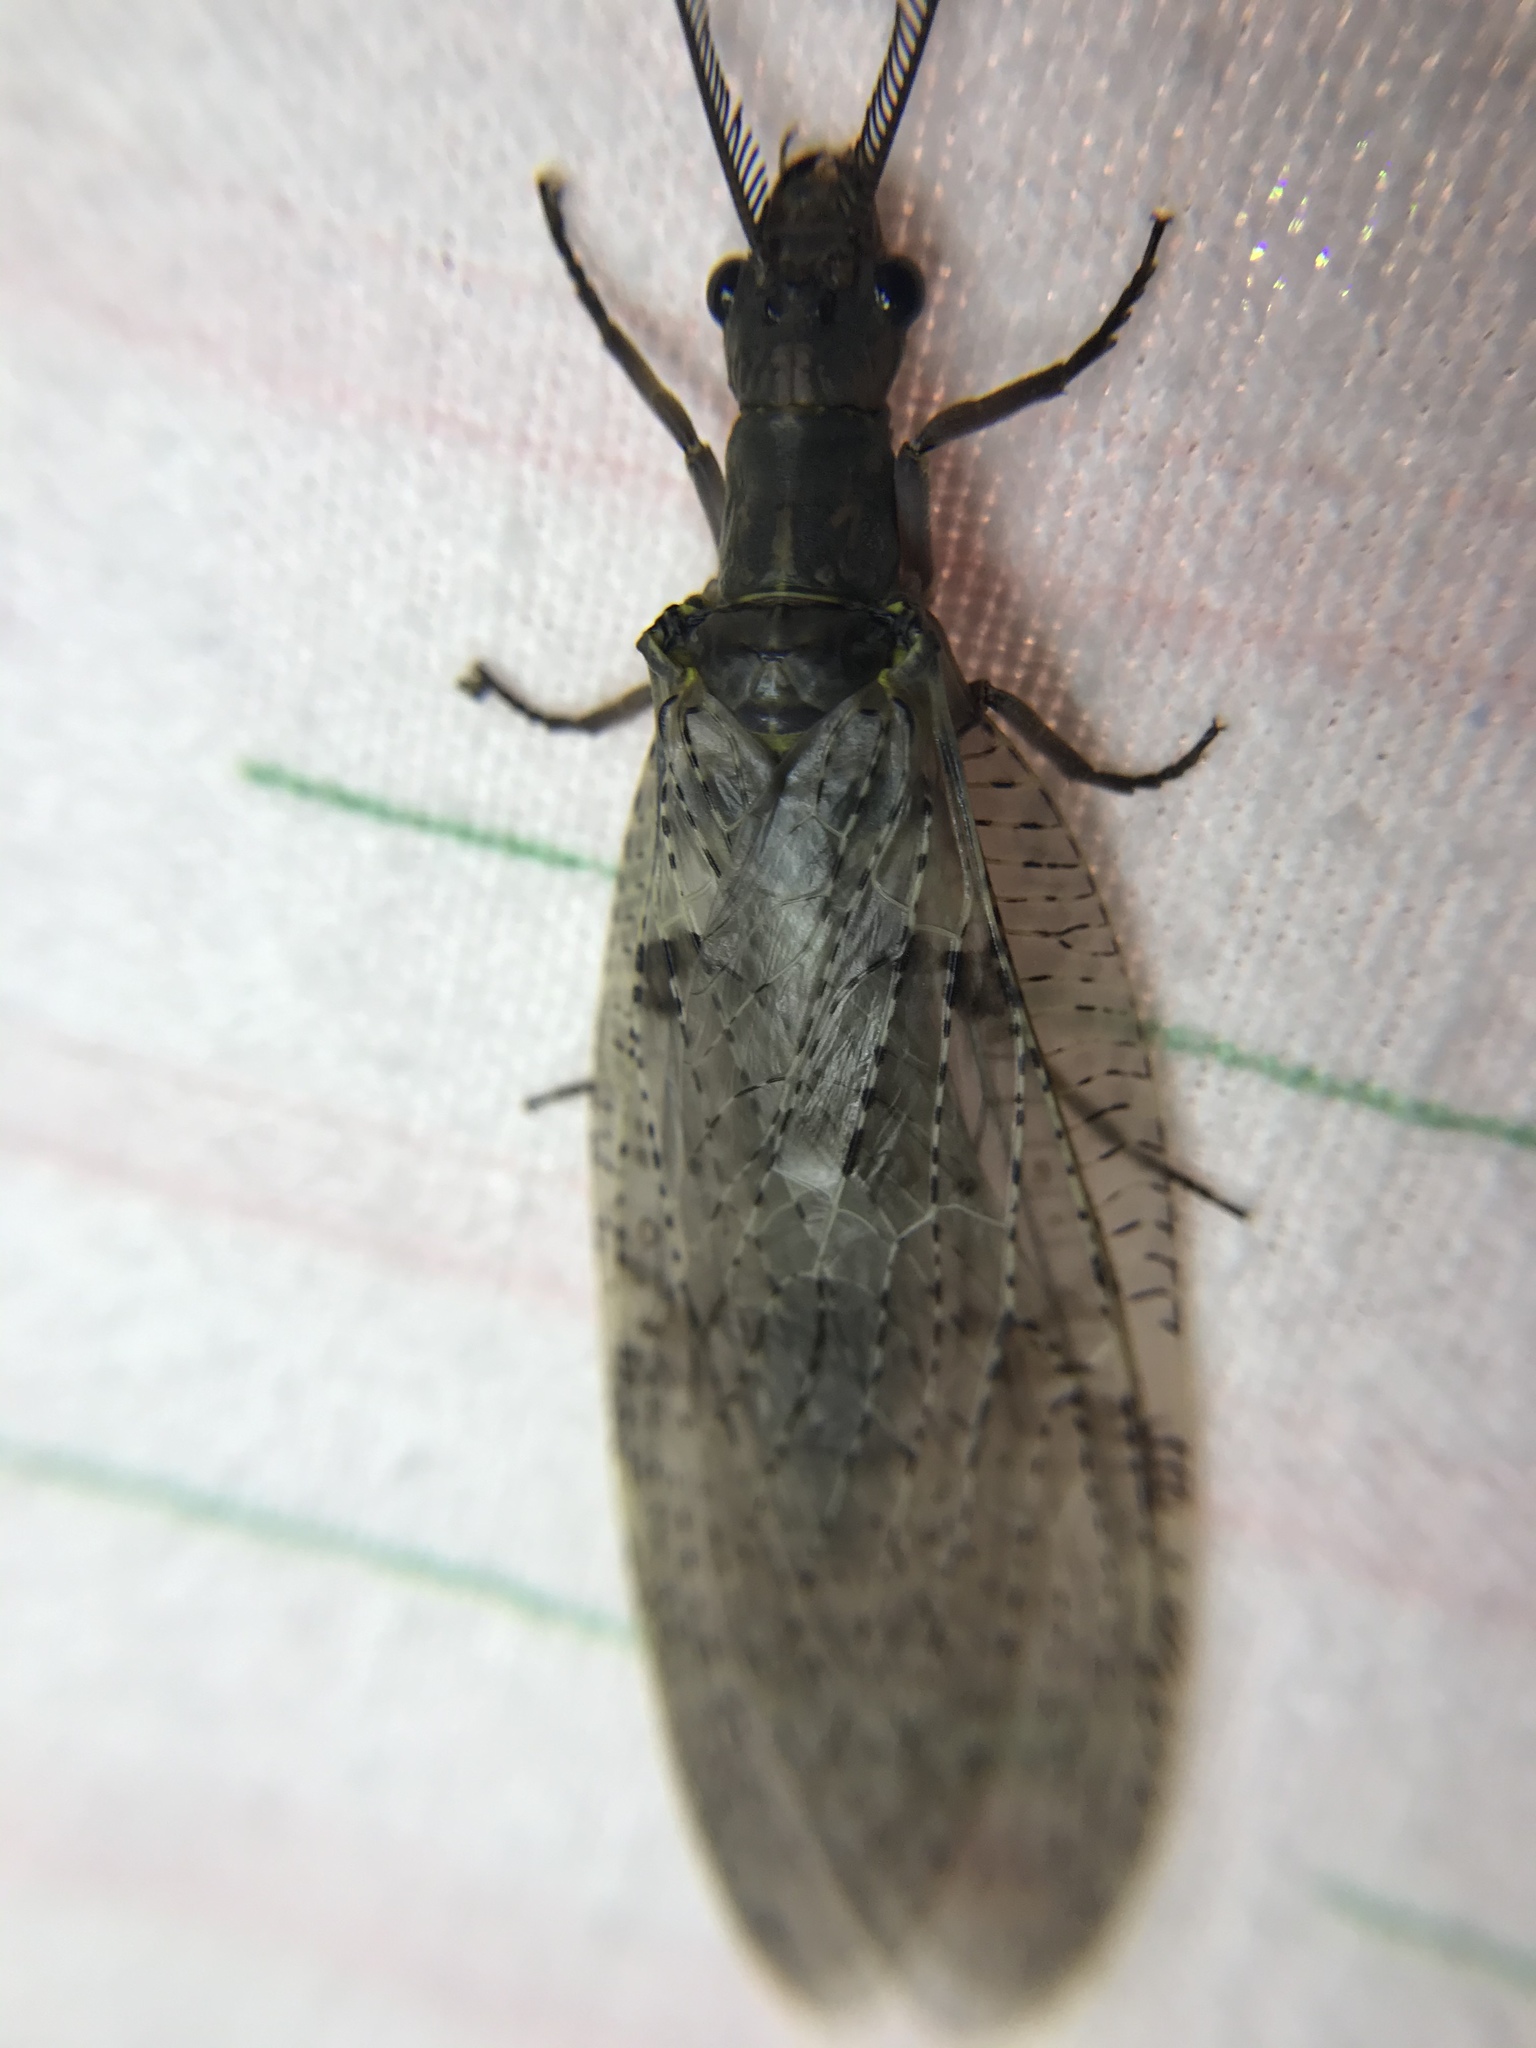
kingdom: Animalia
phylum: Arthropoda
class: Insecta
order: Megaloptera
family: Corydalidae
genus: Chauliodes
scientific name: Chauliodes pectinicornis
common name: Summer fishfly
